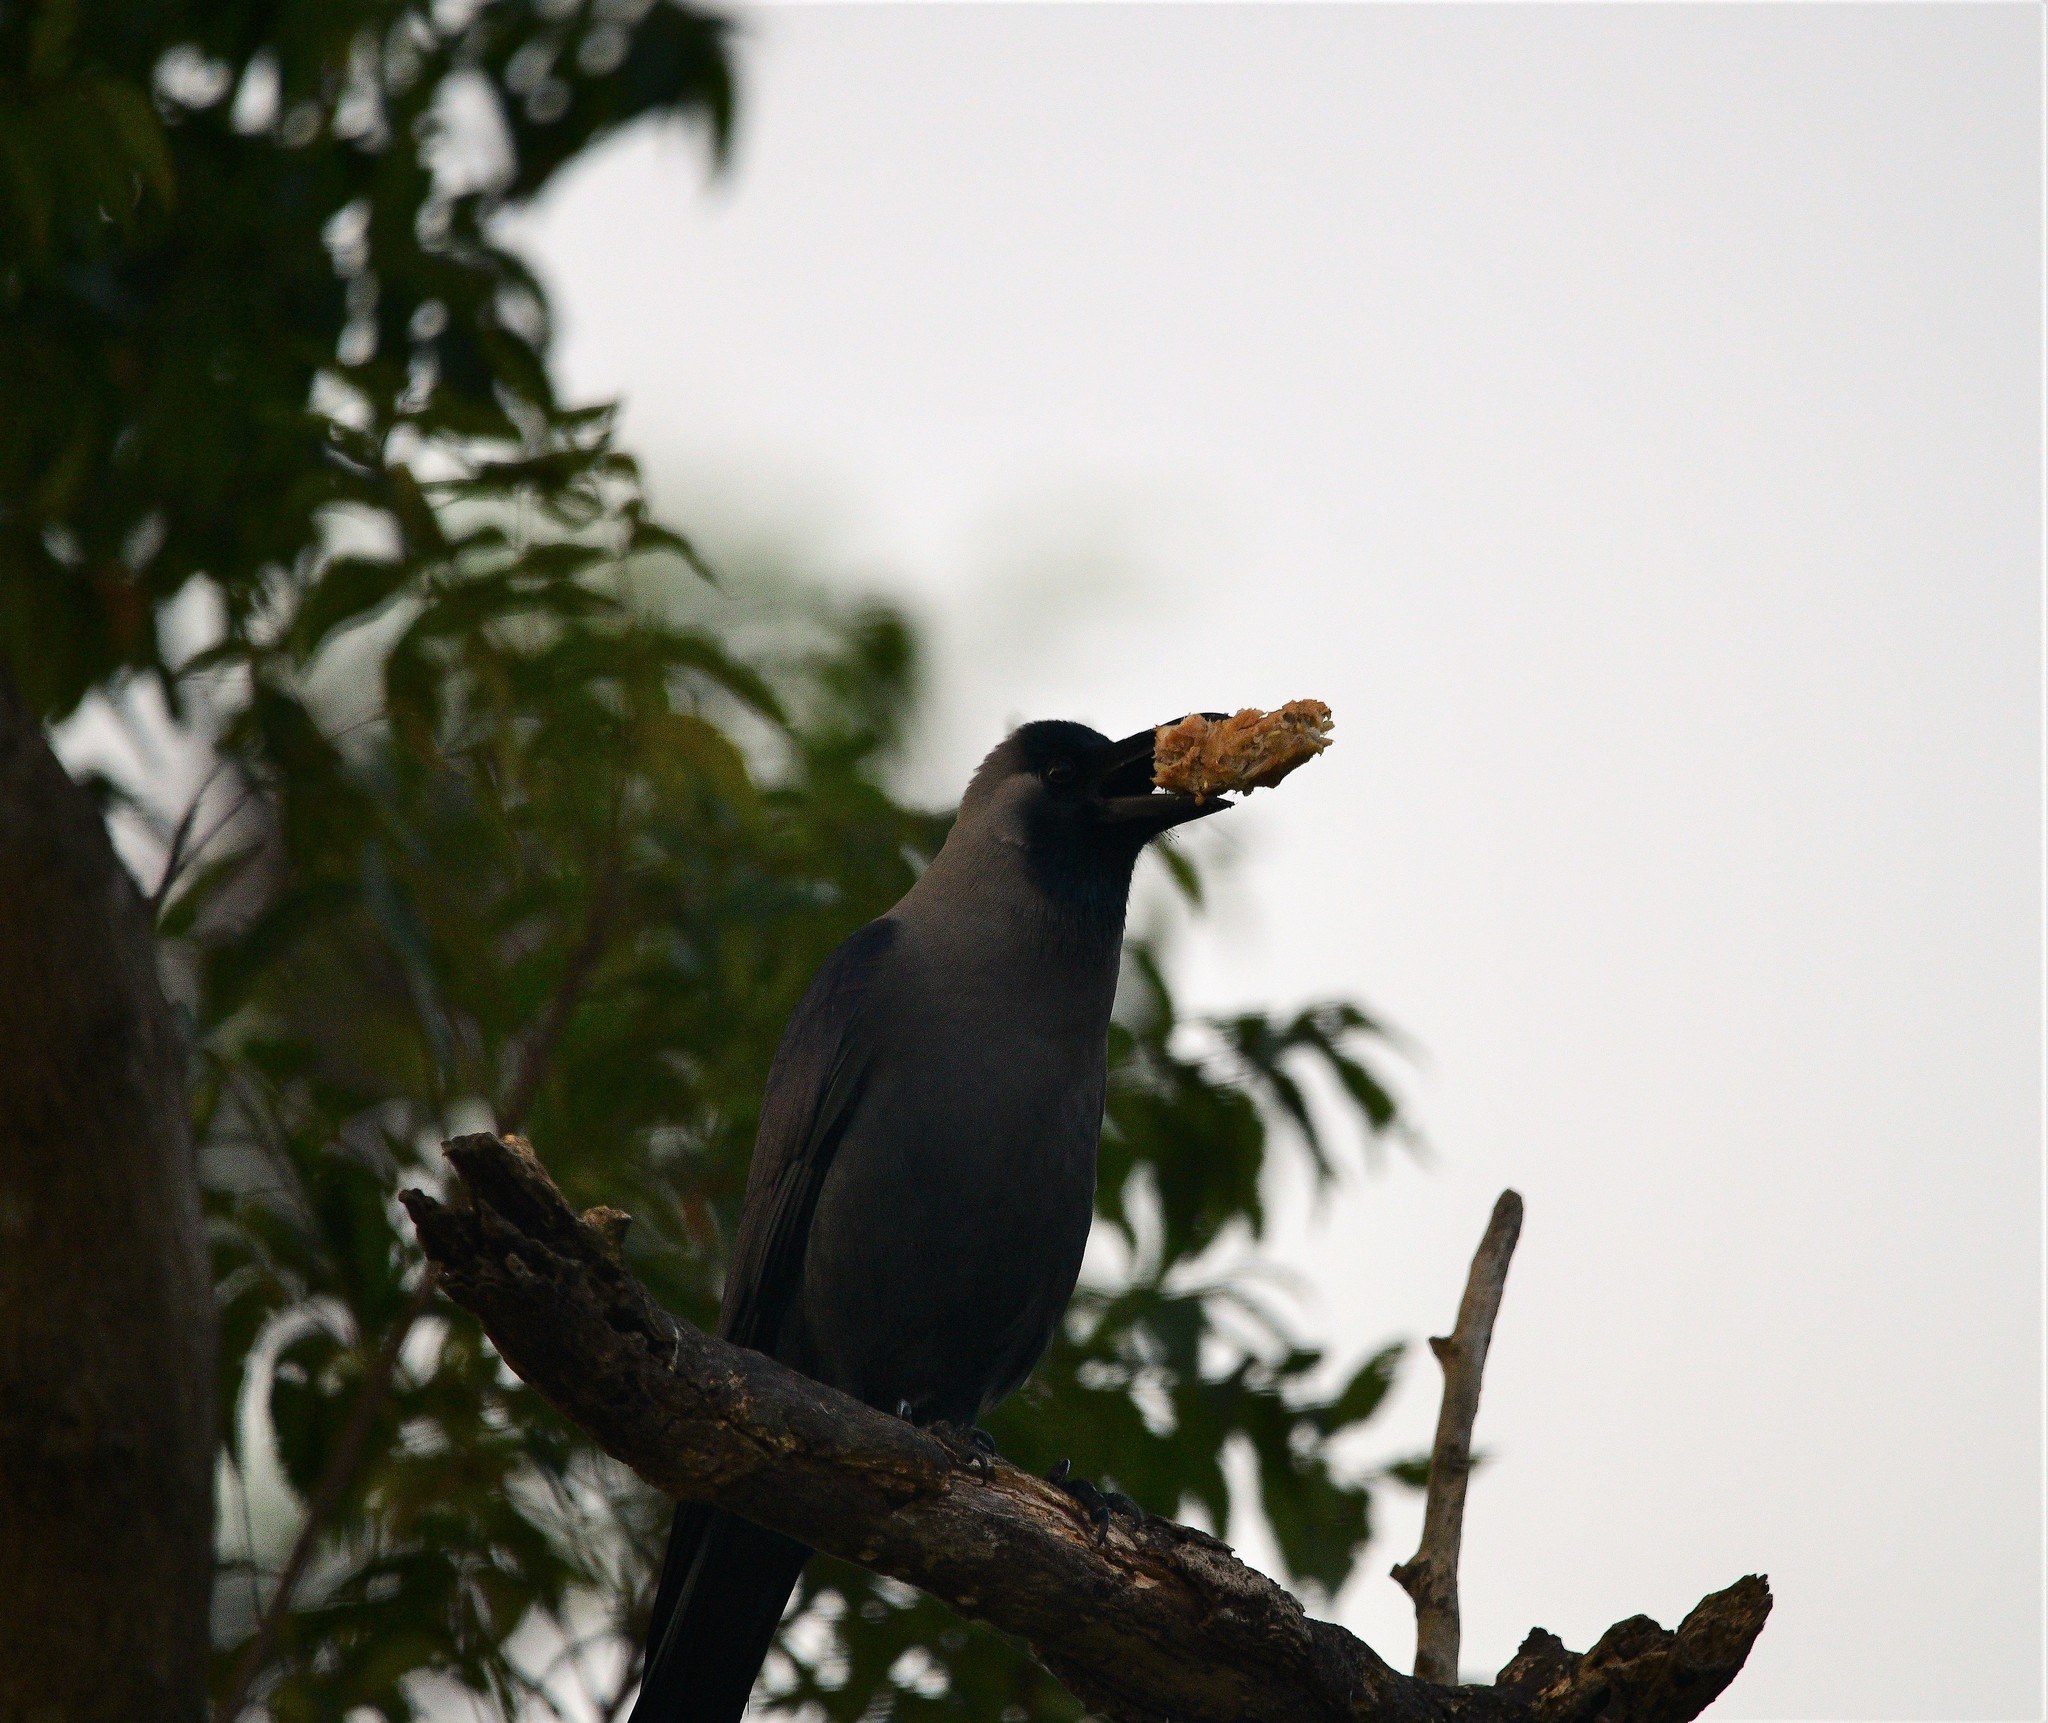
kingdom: Animalia
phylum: Chordata
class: Aves
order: Passeriformes
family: Corvidae
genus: Corvus
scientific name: Corvus splendens
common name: House crow
